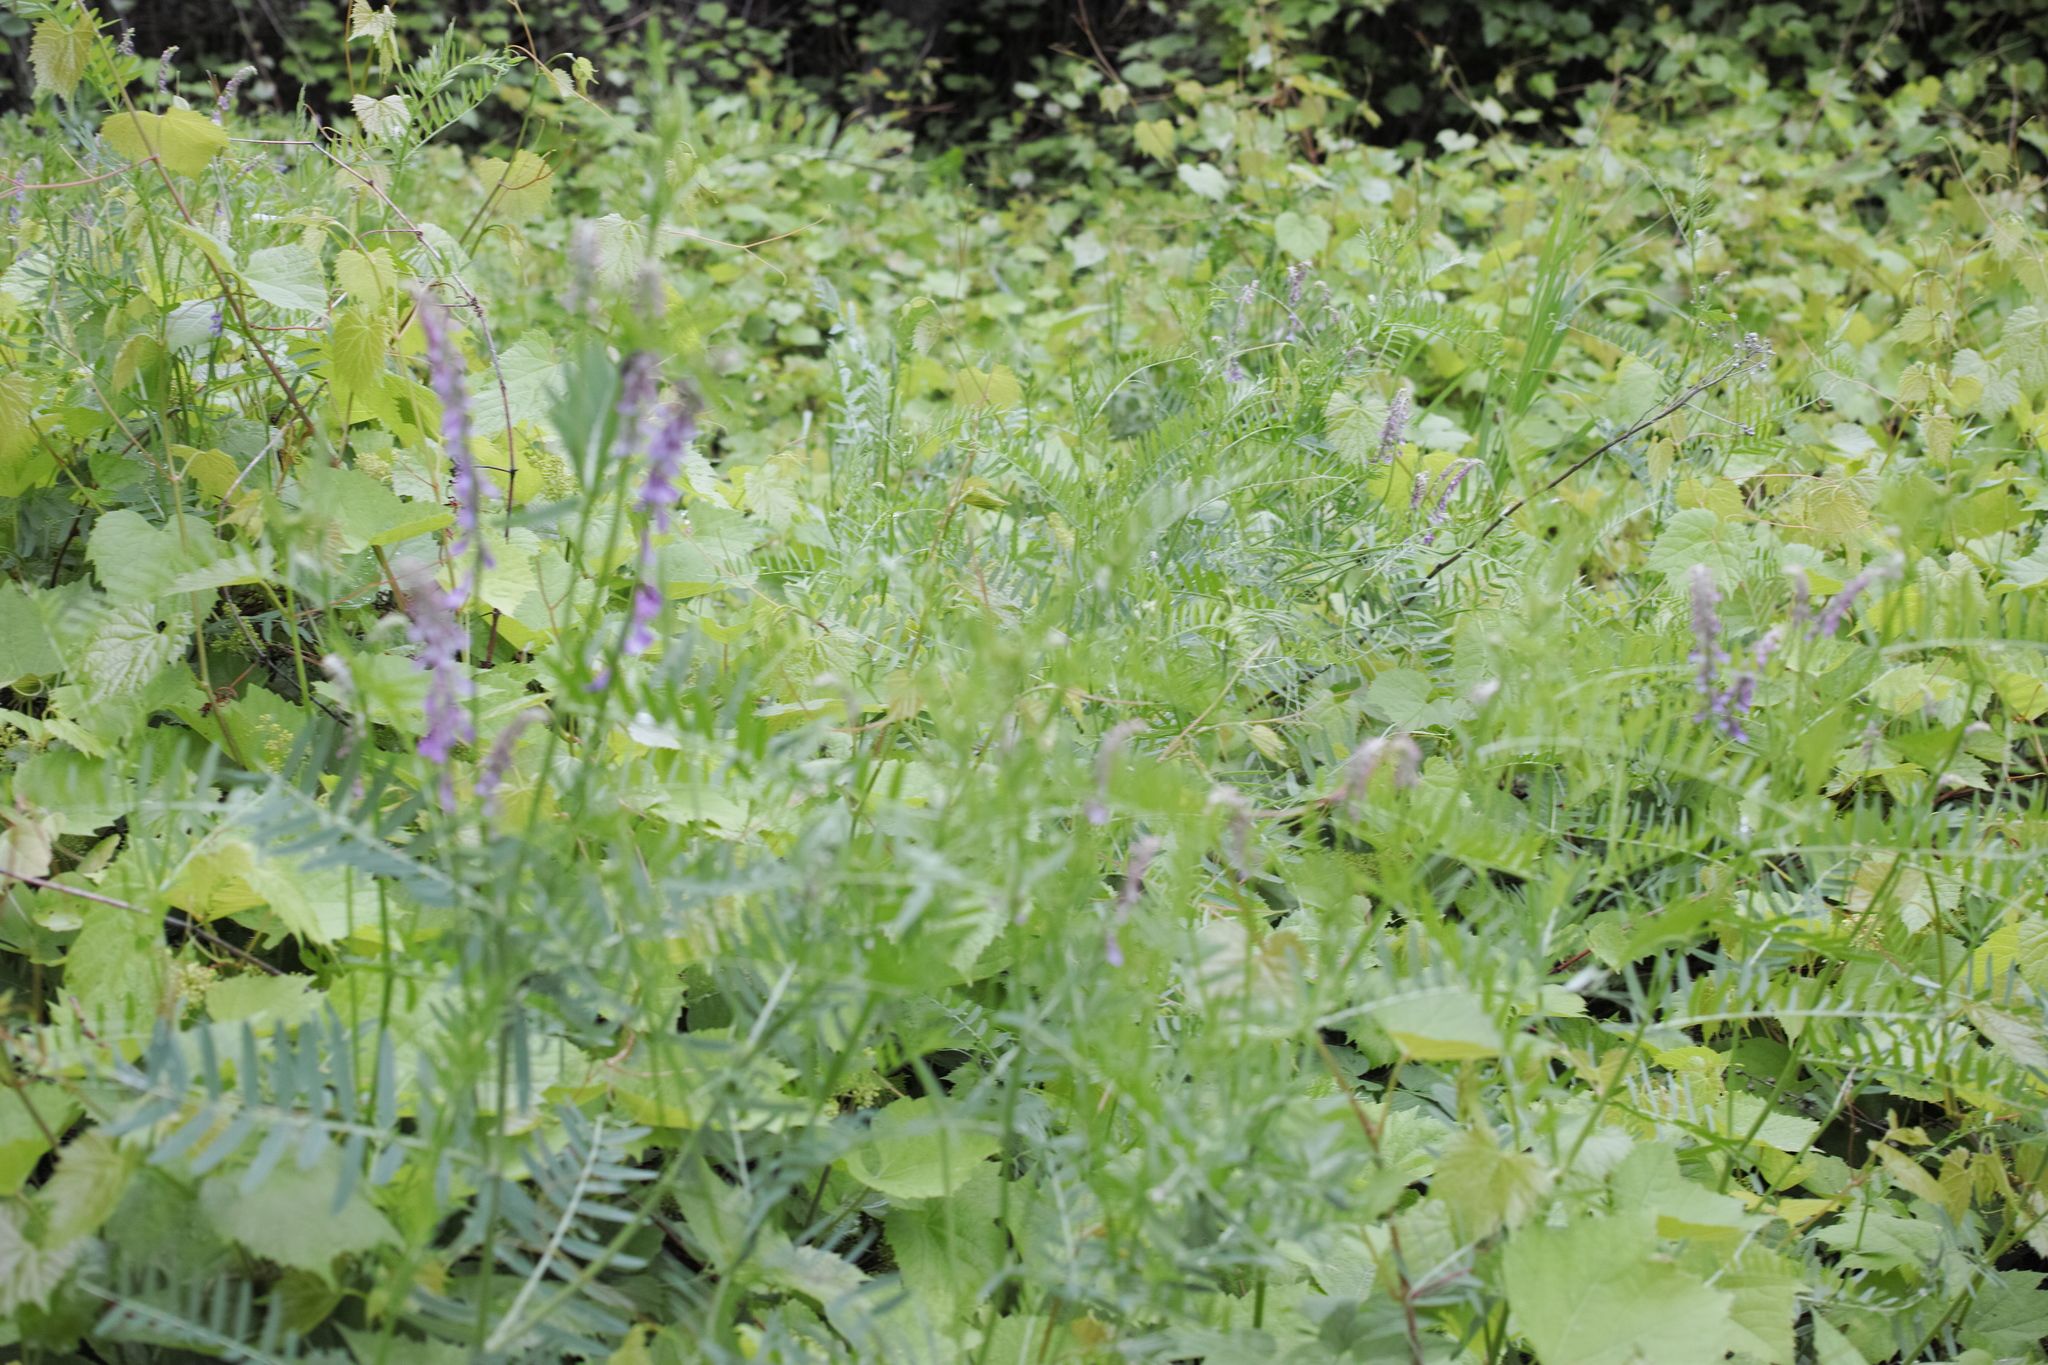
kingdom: Plantae
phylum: Tracheophyta
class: Magnoliopsida
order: Fabales
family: Fabaceae
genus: Vicia
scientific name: Vicia tenuifolia
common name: Fine-leaved vetch
